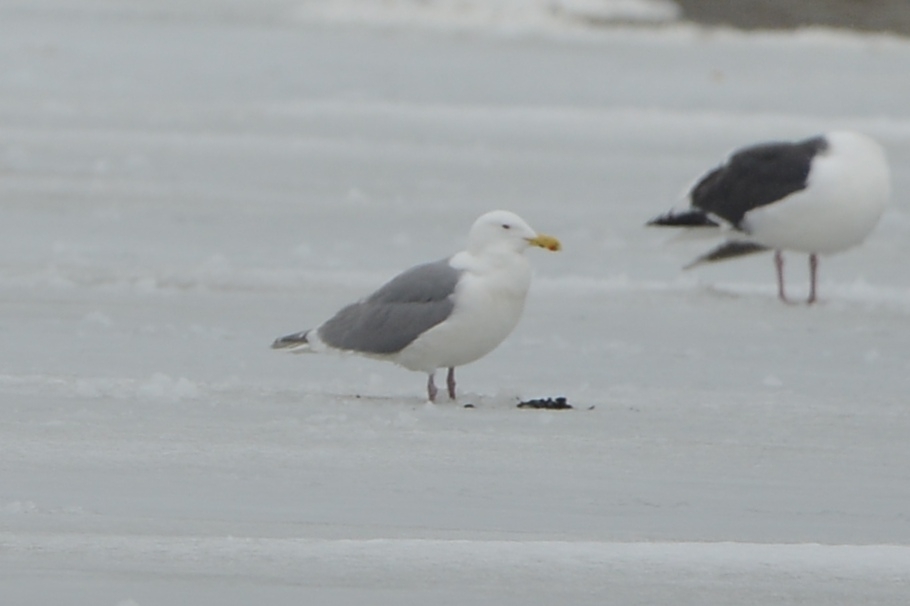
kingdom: Animalia
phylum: Chordata
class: Aves
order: Charadriiformes
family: Laridae
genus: Larus
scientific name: Larus glaucescens
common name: Glaucous-winged gull
